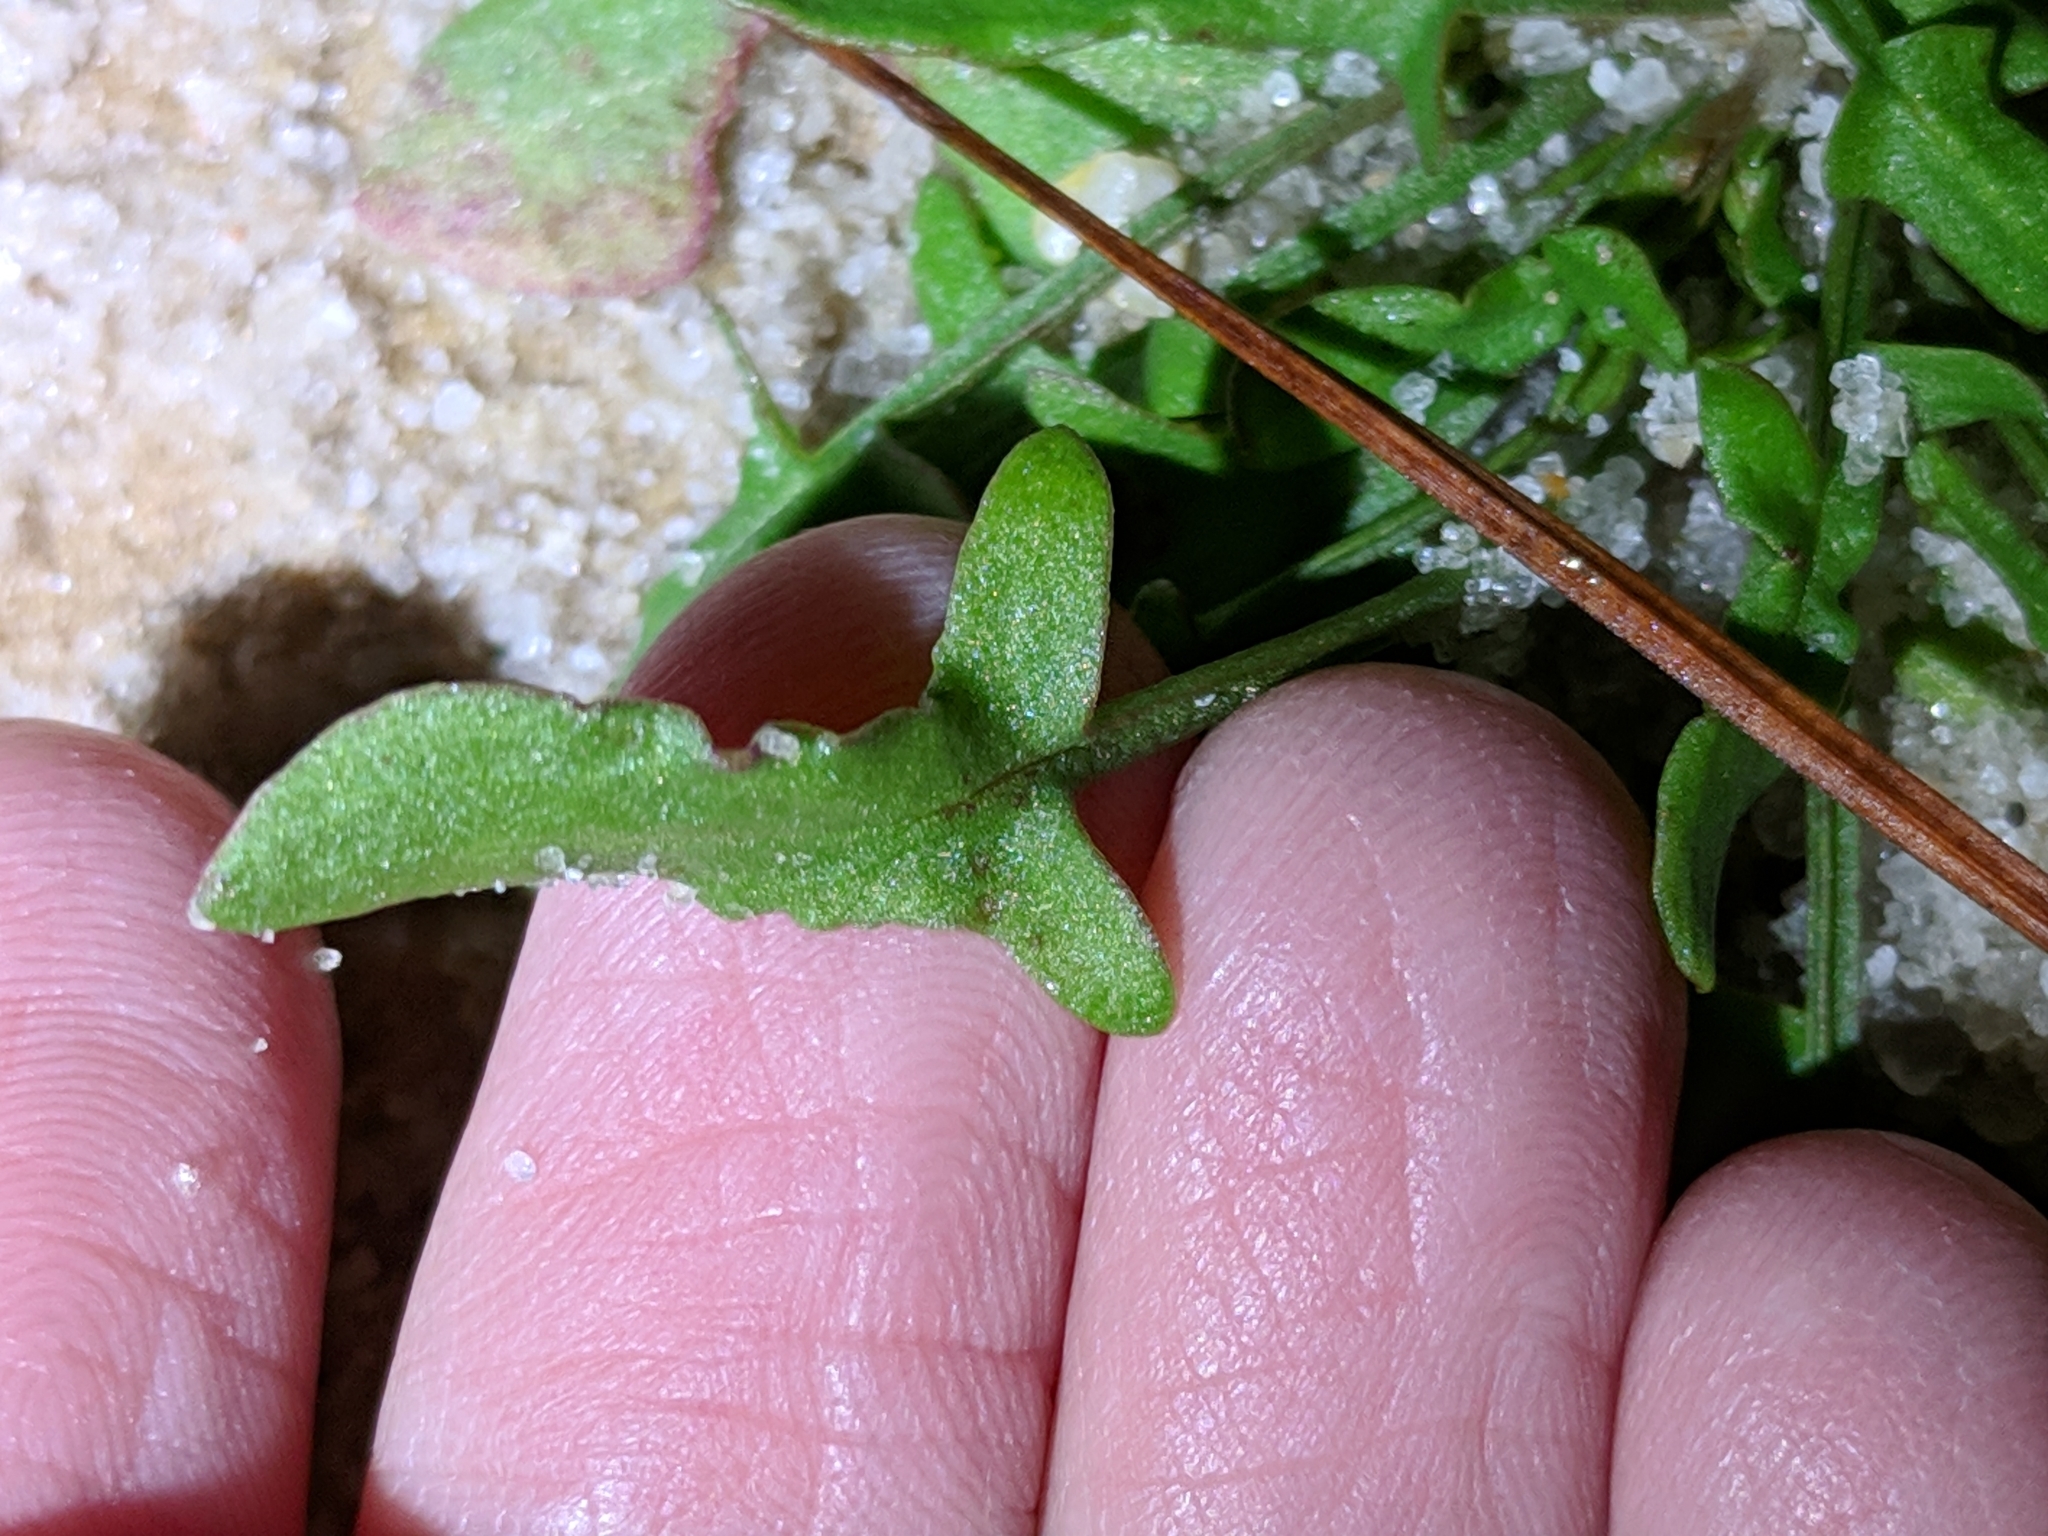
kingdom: Plantae
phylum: Tracheophyta
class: Magnoliopsida
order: Caryophyllales
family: Polygonaceae
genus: Rumex
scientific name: Rumex acetosella
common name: Common sheep sorrel
